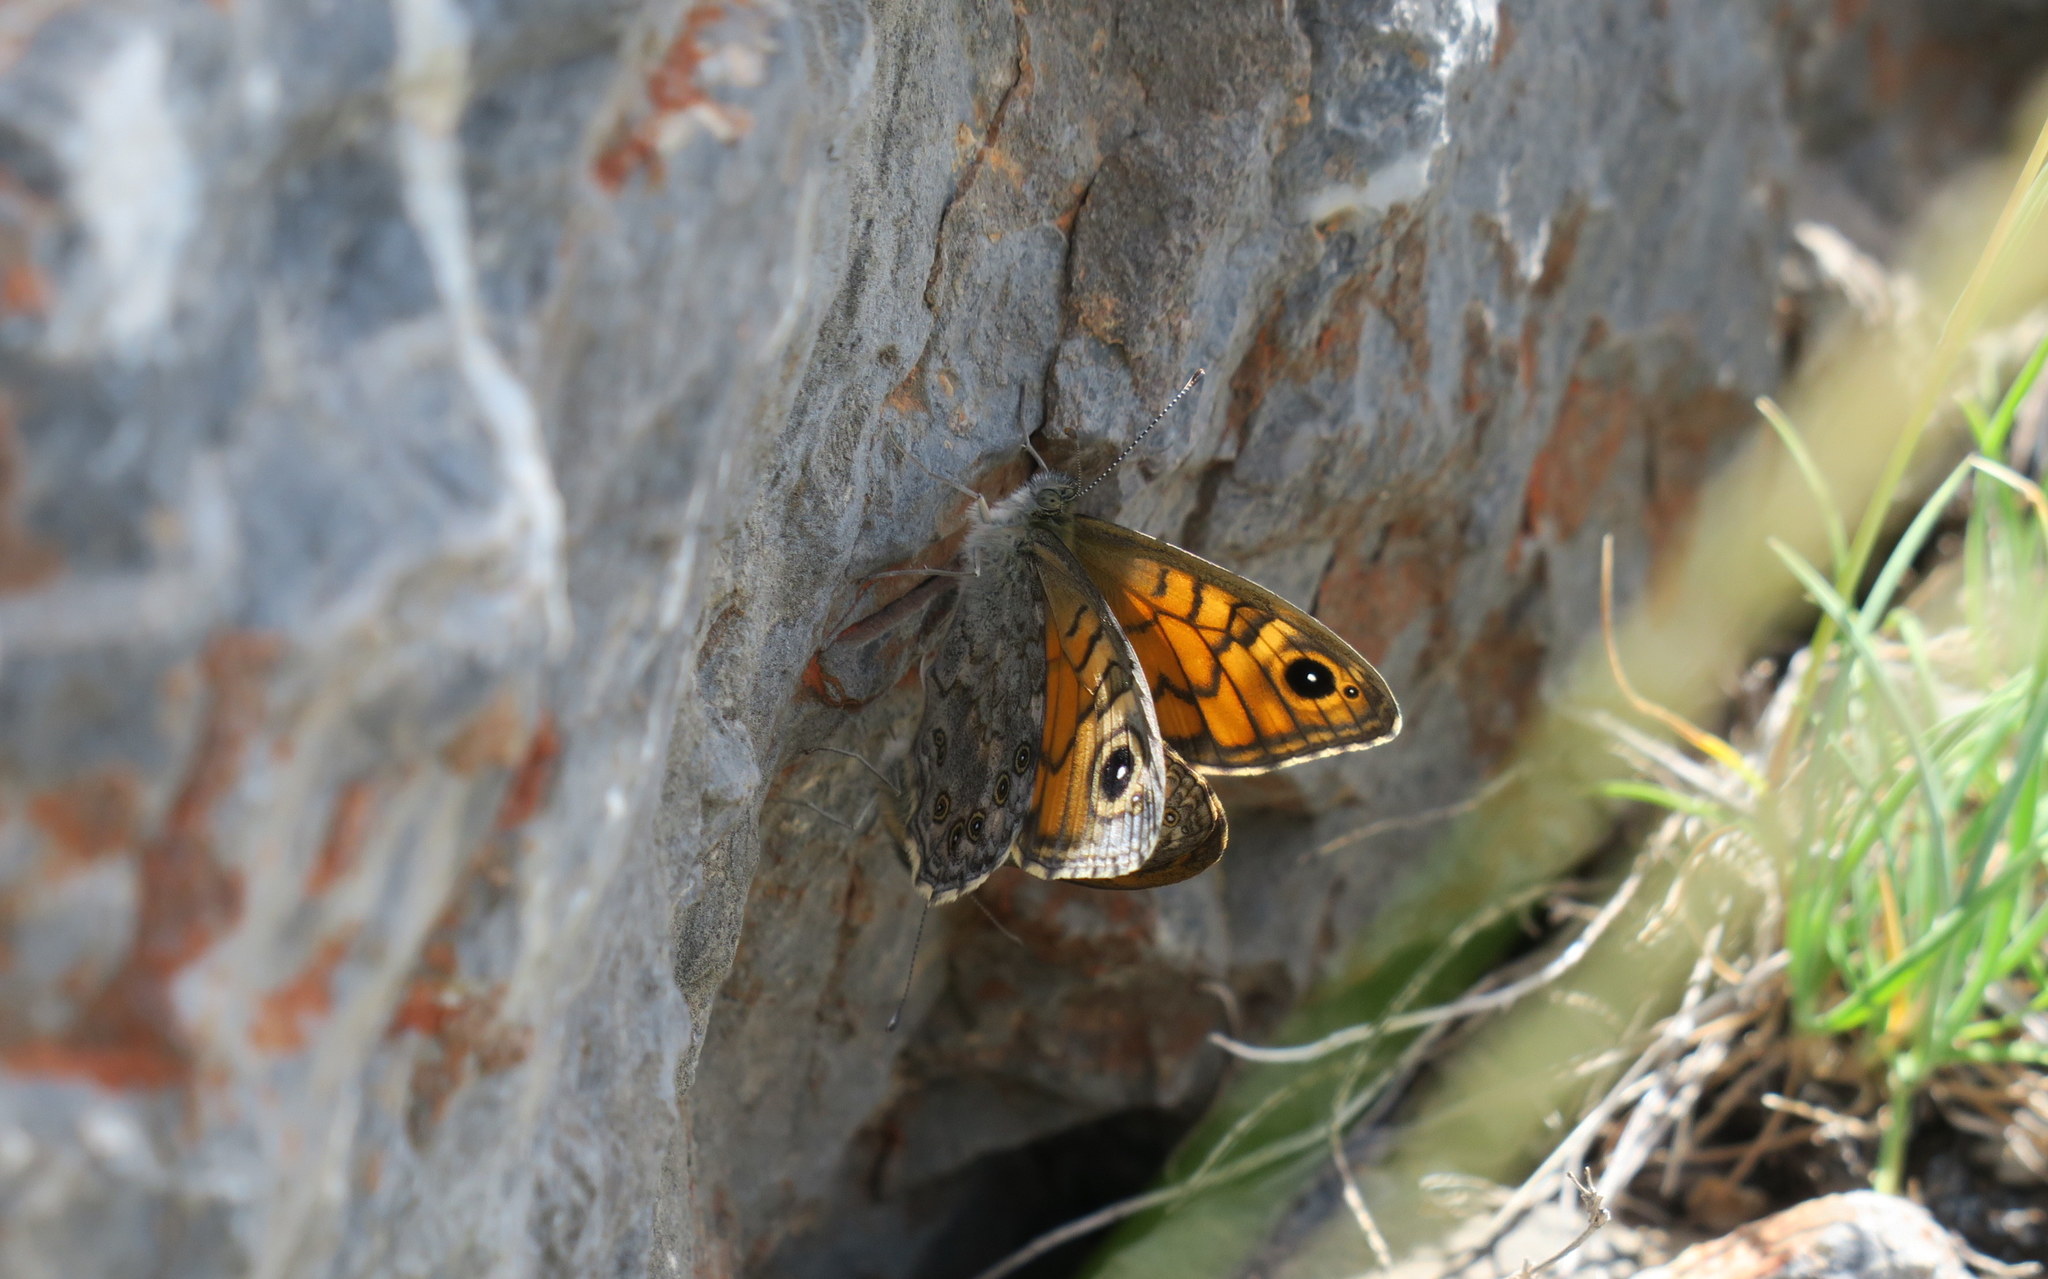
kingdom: Animalia
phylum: Arthropoda
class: Insecta
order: Lepidoptera
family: Nymphalidae
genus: Pararge
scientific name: Pararge Lasiommata megera
